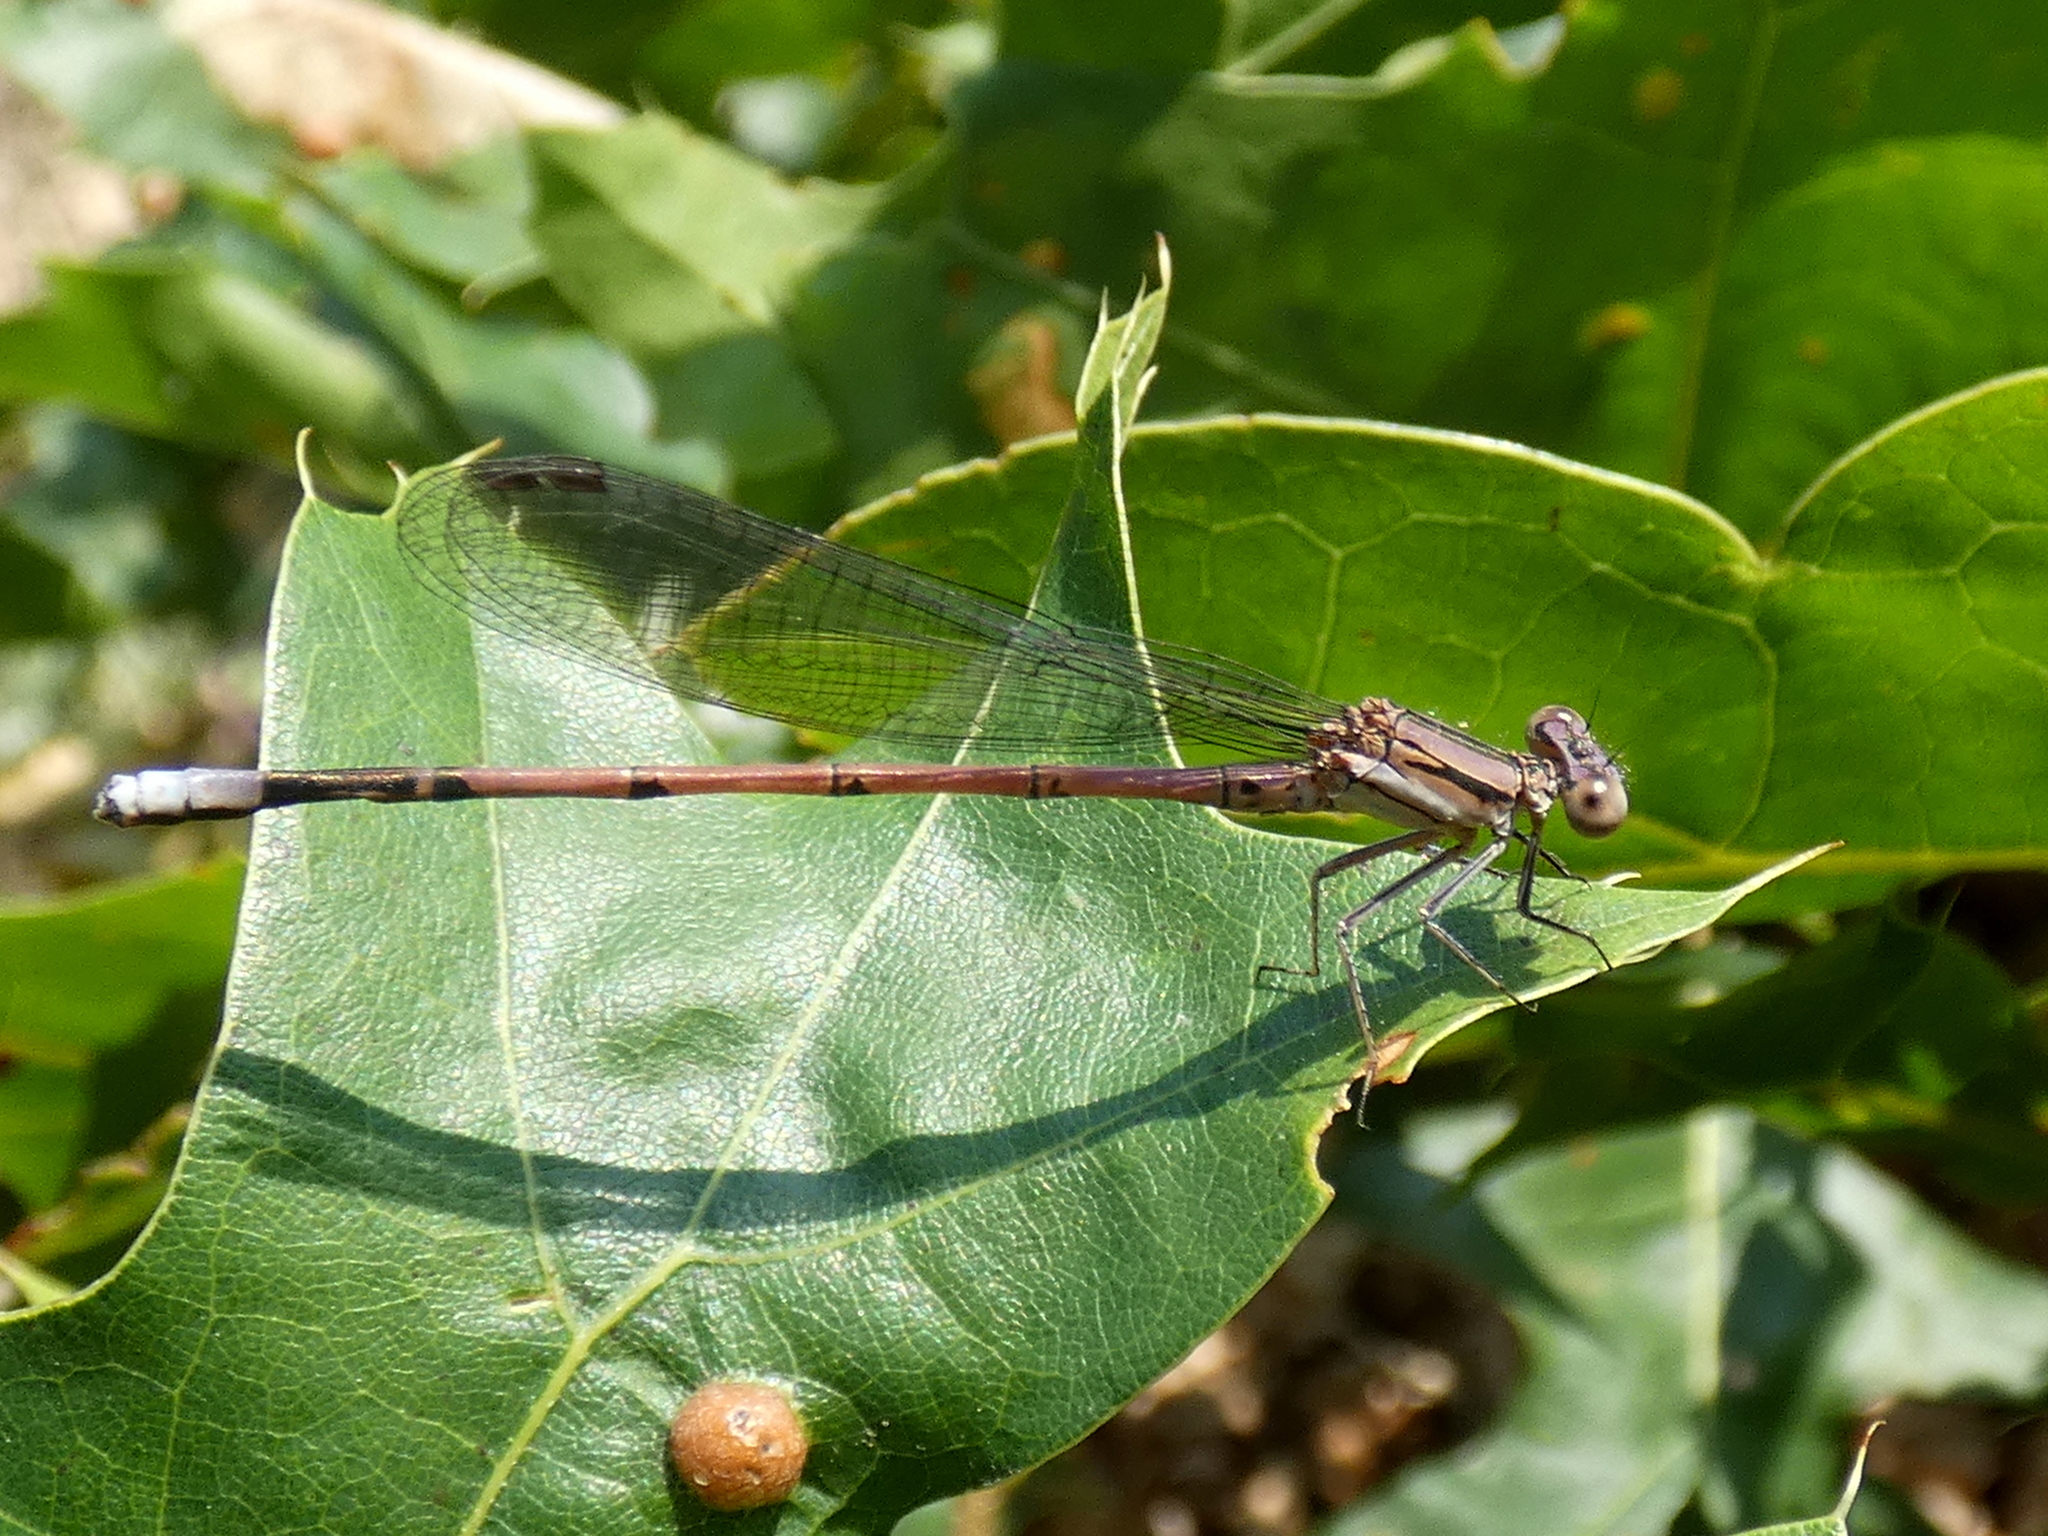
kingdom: Animalia
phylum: Arthropoda
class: Insecta
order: Odonata
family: Coenagrionidae
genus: Argia
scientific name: Argia fumipennis
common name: Variable dancer
